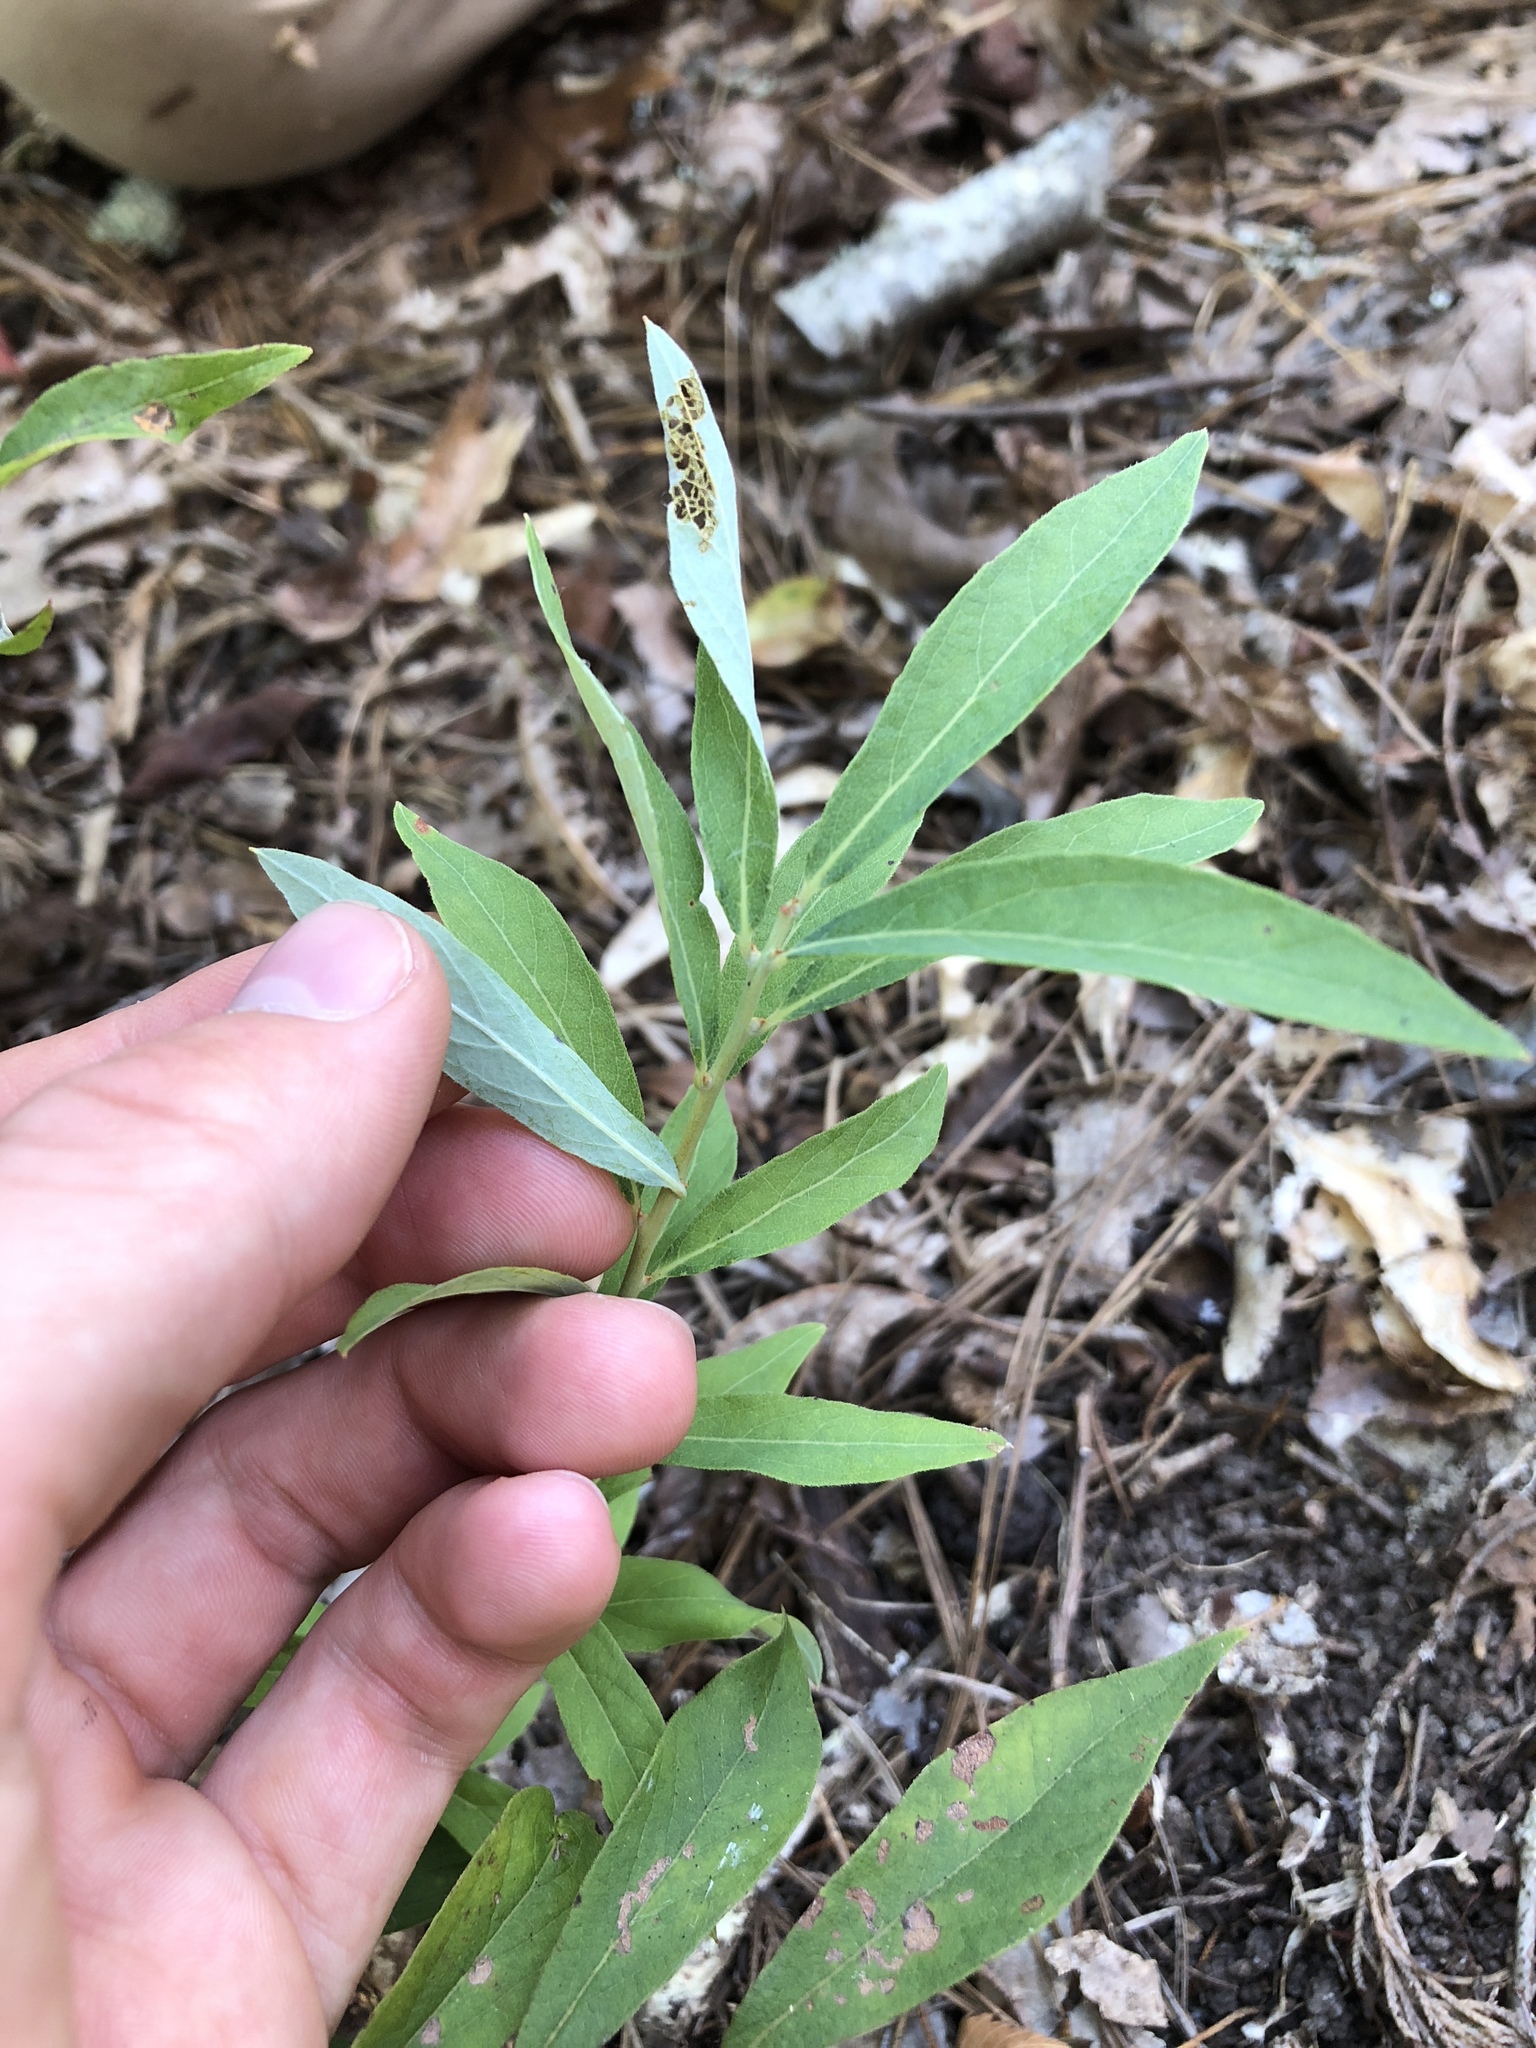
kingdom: Plantae
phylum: Tracheophyta
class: Magnoliopsida
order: Ericales
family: Ericaceae
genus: Vaccinium
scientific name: Vaccinium stamineum
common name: Deerberry
